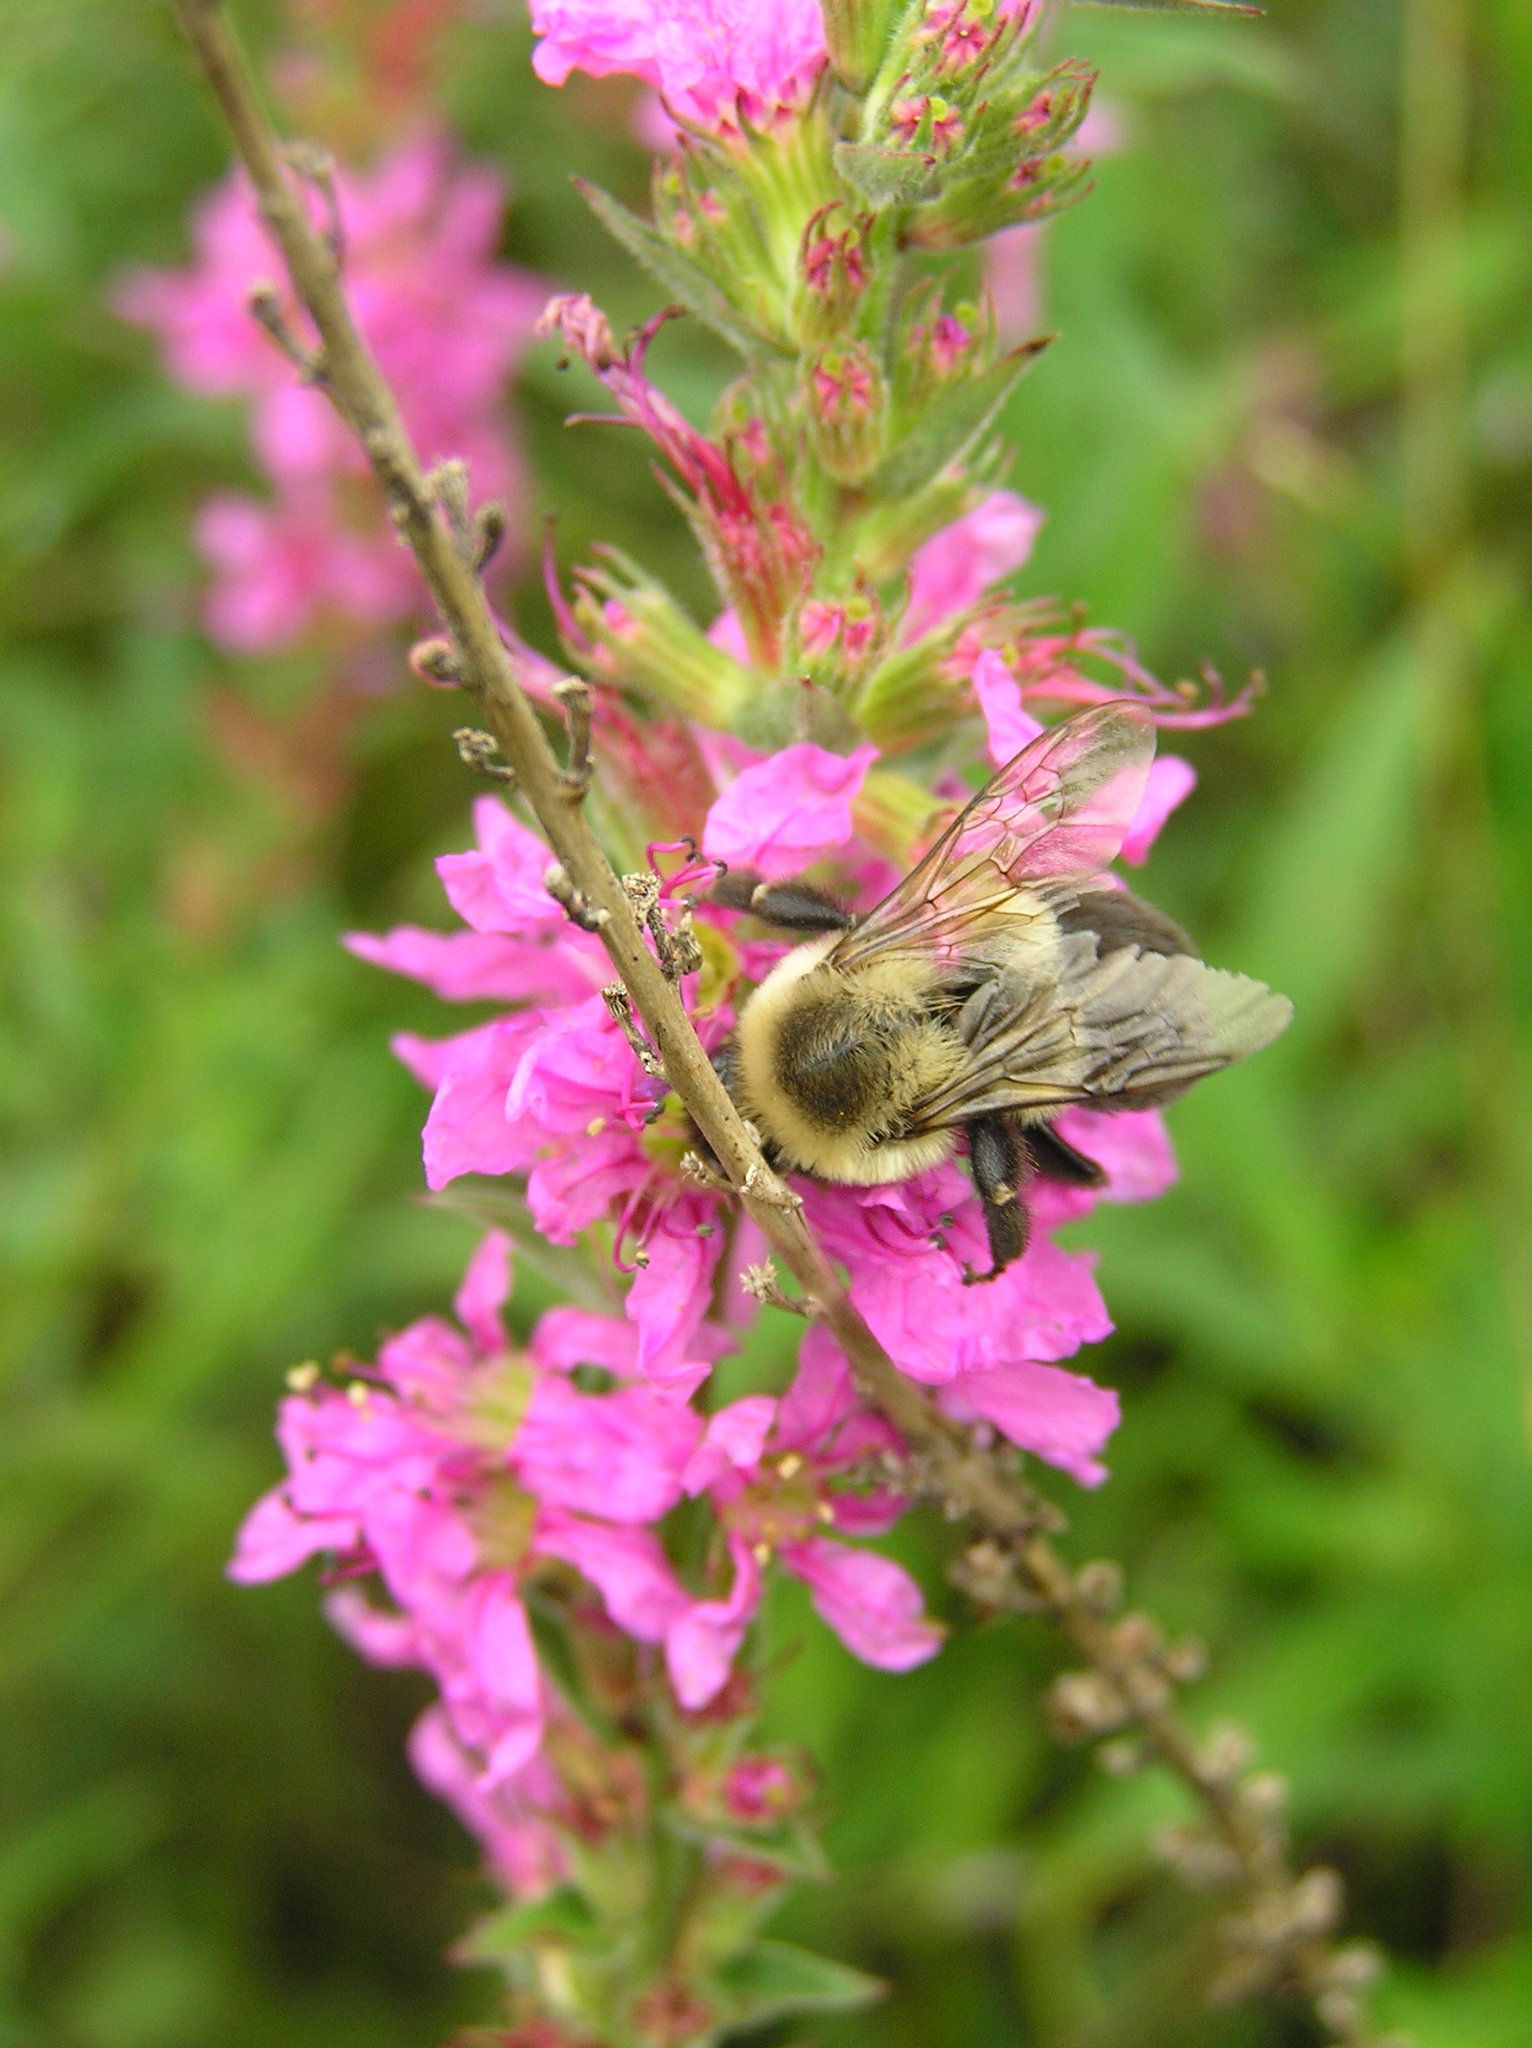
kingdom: Animalia
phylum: Arthropoda
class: Insecta
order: Hymenoptera
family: Apidae
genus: Bombus
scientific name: Bombus impatiens
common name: Common eastern bumble bee
